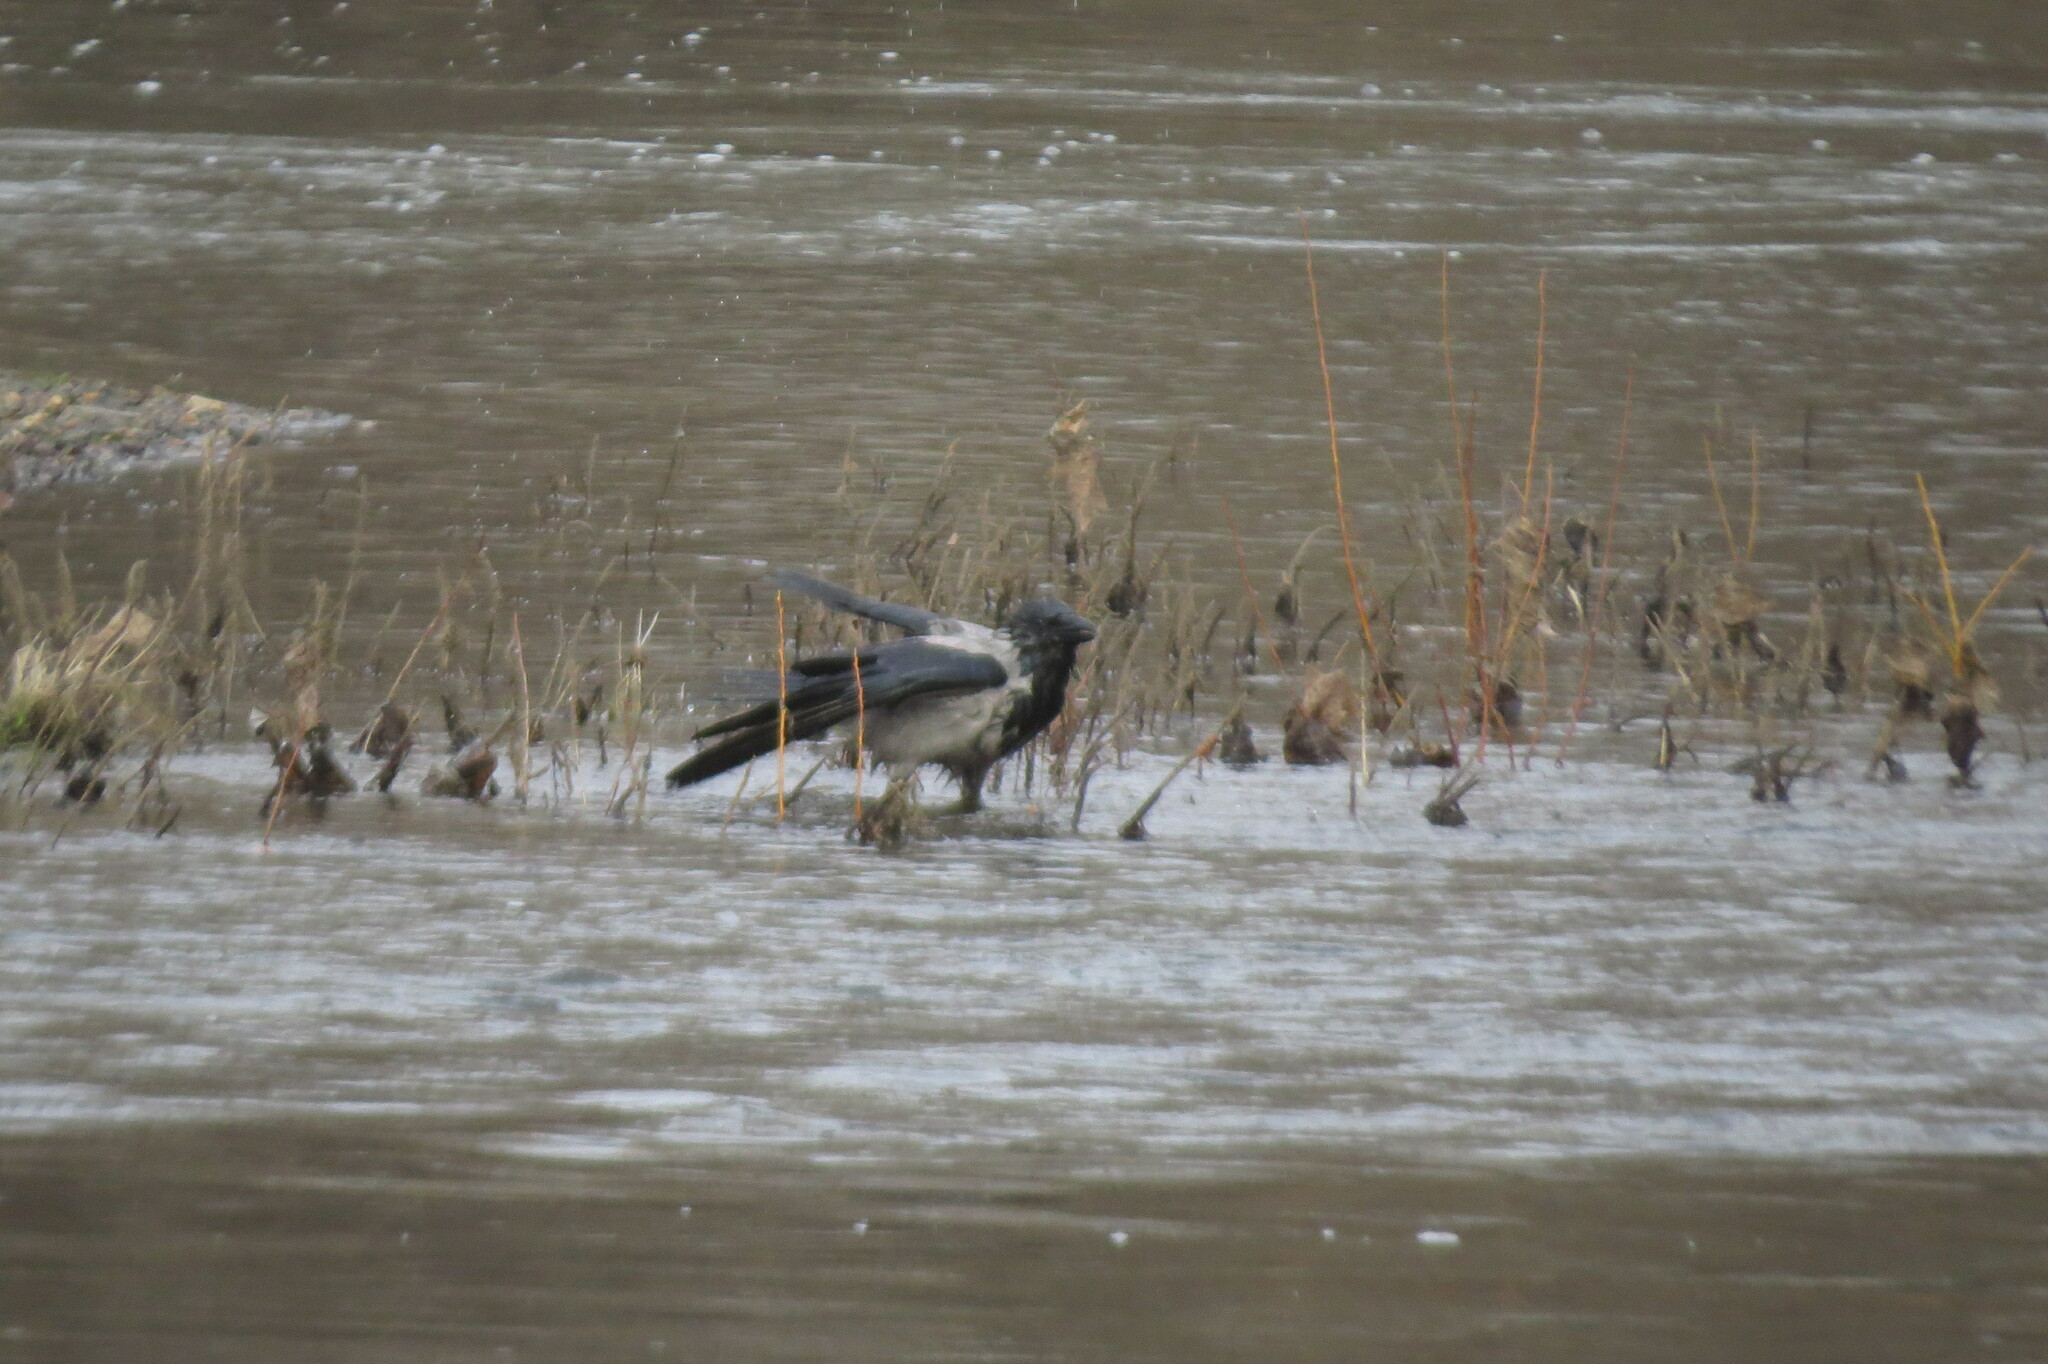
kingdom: Animalia
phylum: Chordata
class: Aves
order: Passeriformes
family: Corvidae
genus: Corvus
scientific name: Corvus cornix
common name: Hooded crow
